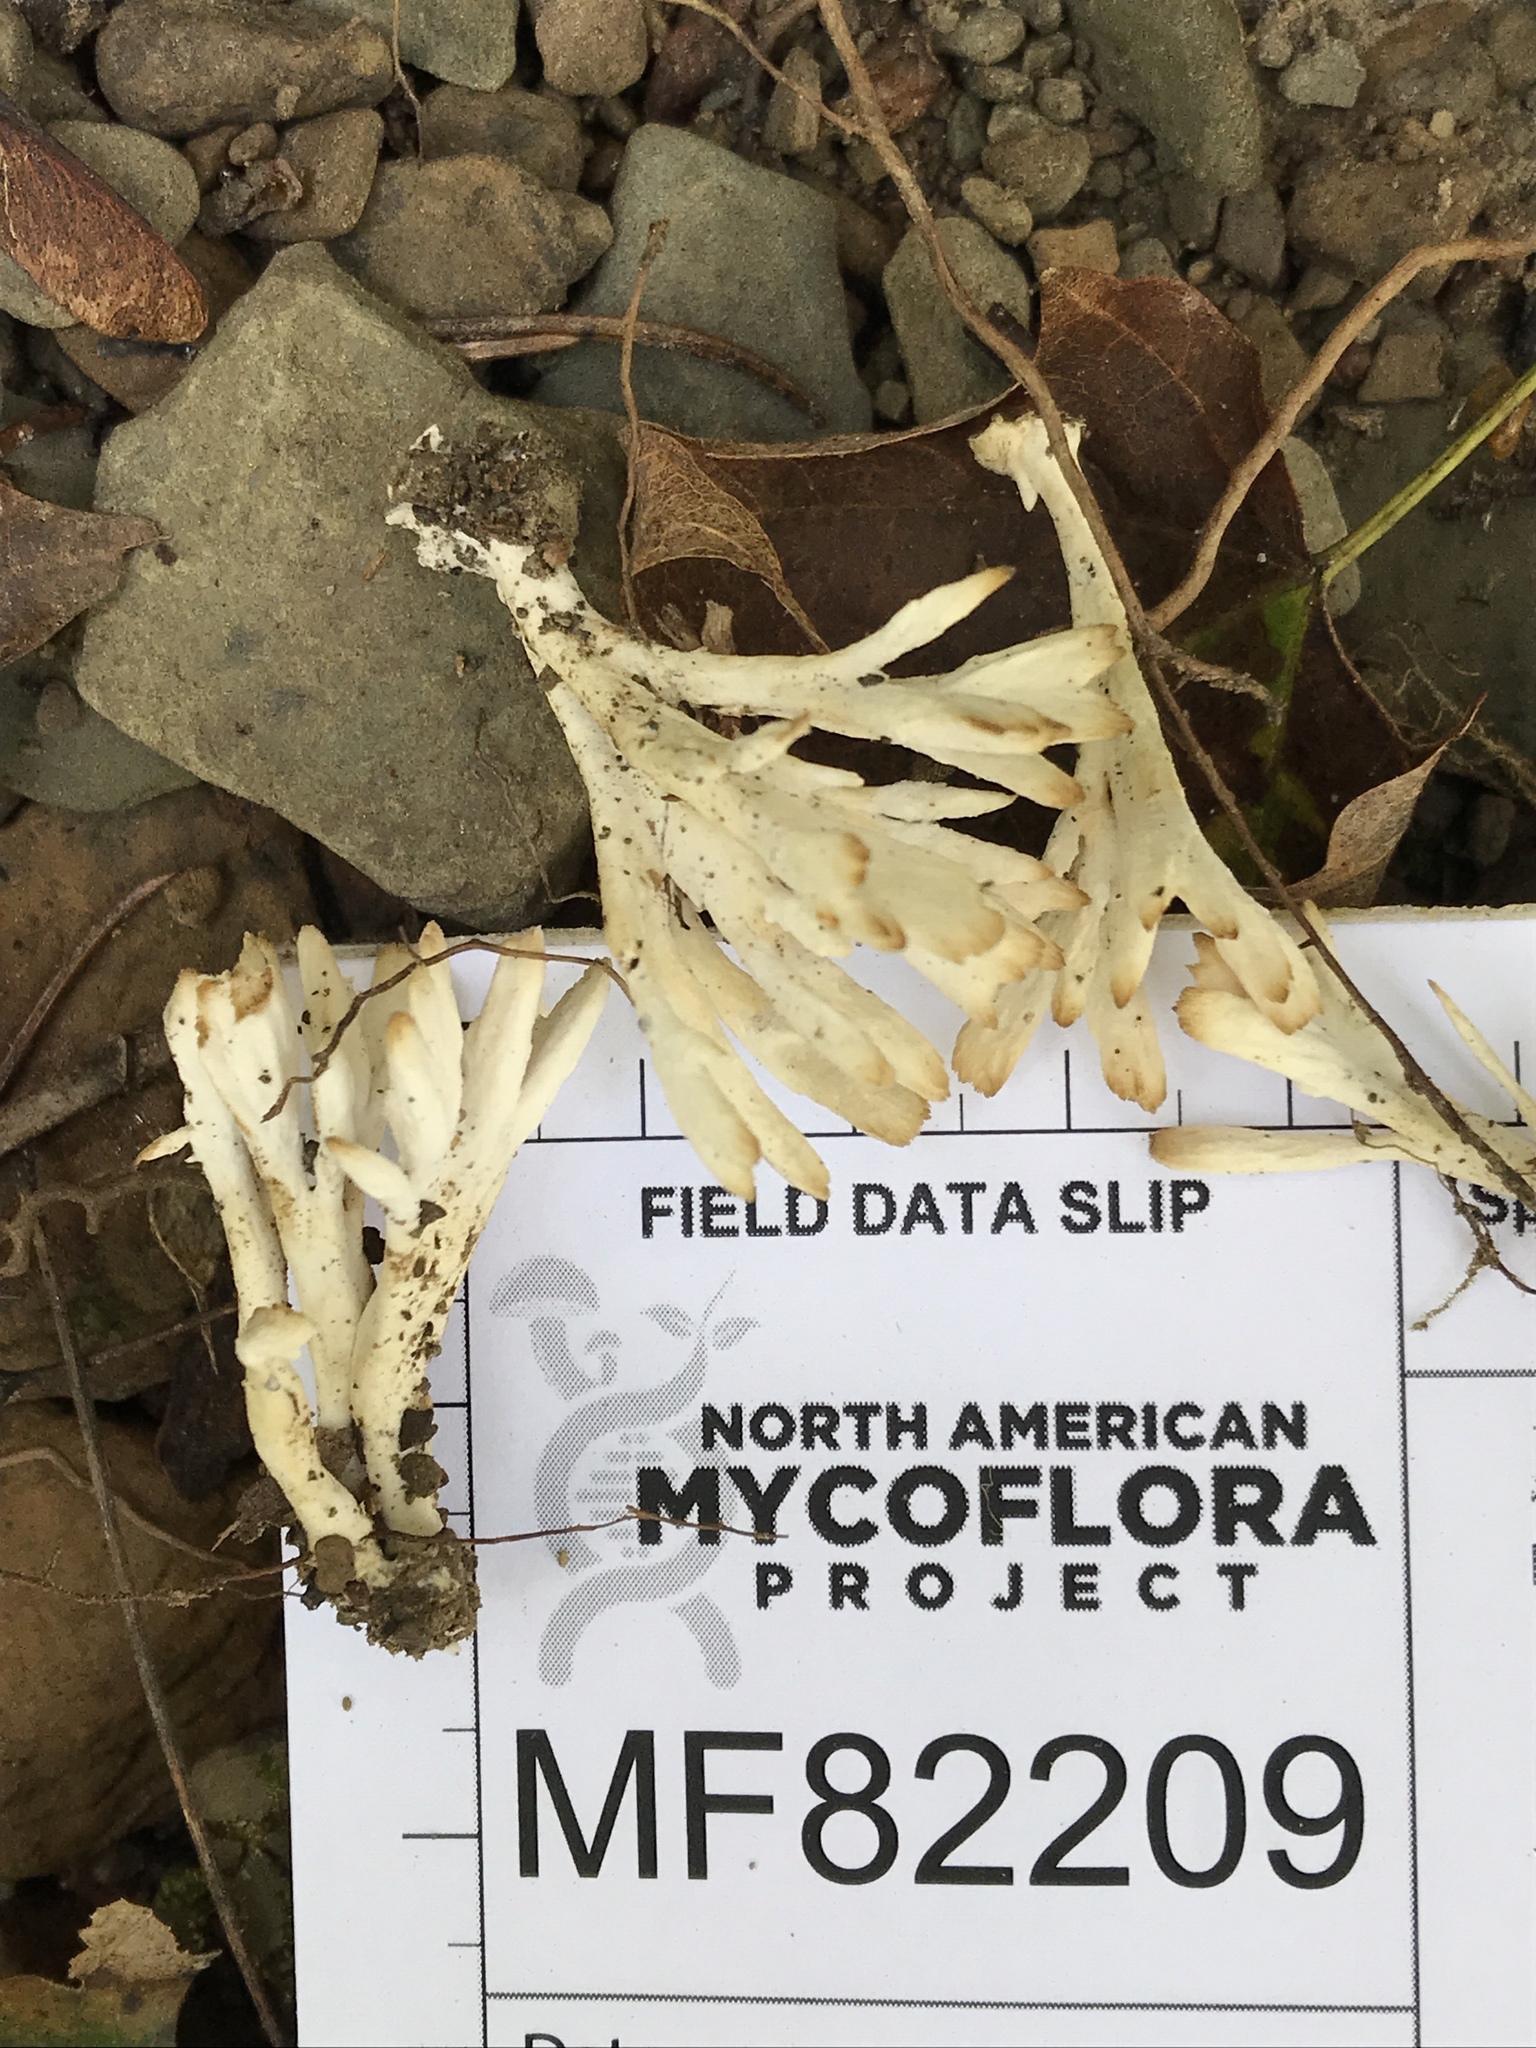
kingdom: Fungi
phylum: Basidiomycota
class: Agaricomycetes
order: Sebacinales
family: Sebacinaceae
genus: Sebacina
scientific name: Sebacina schweinitzii
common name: Jellied false coral fungus
